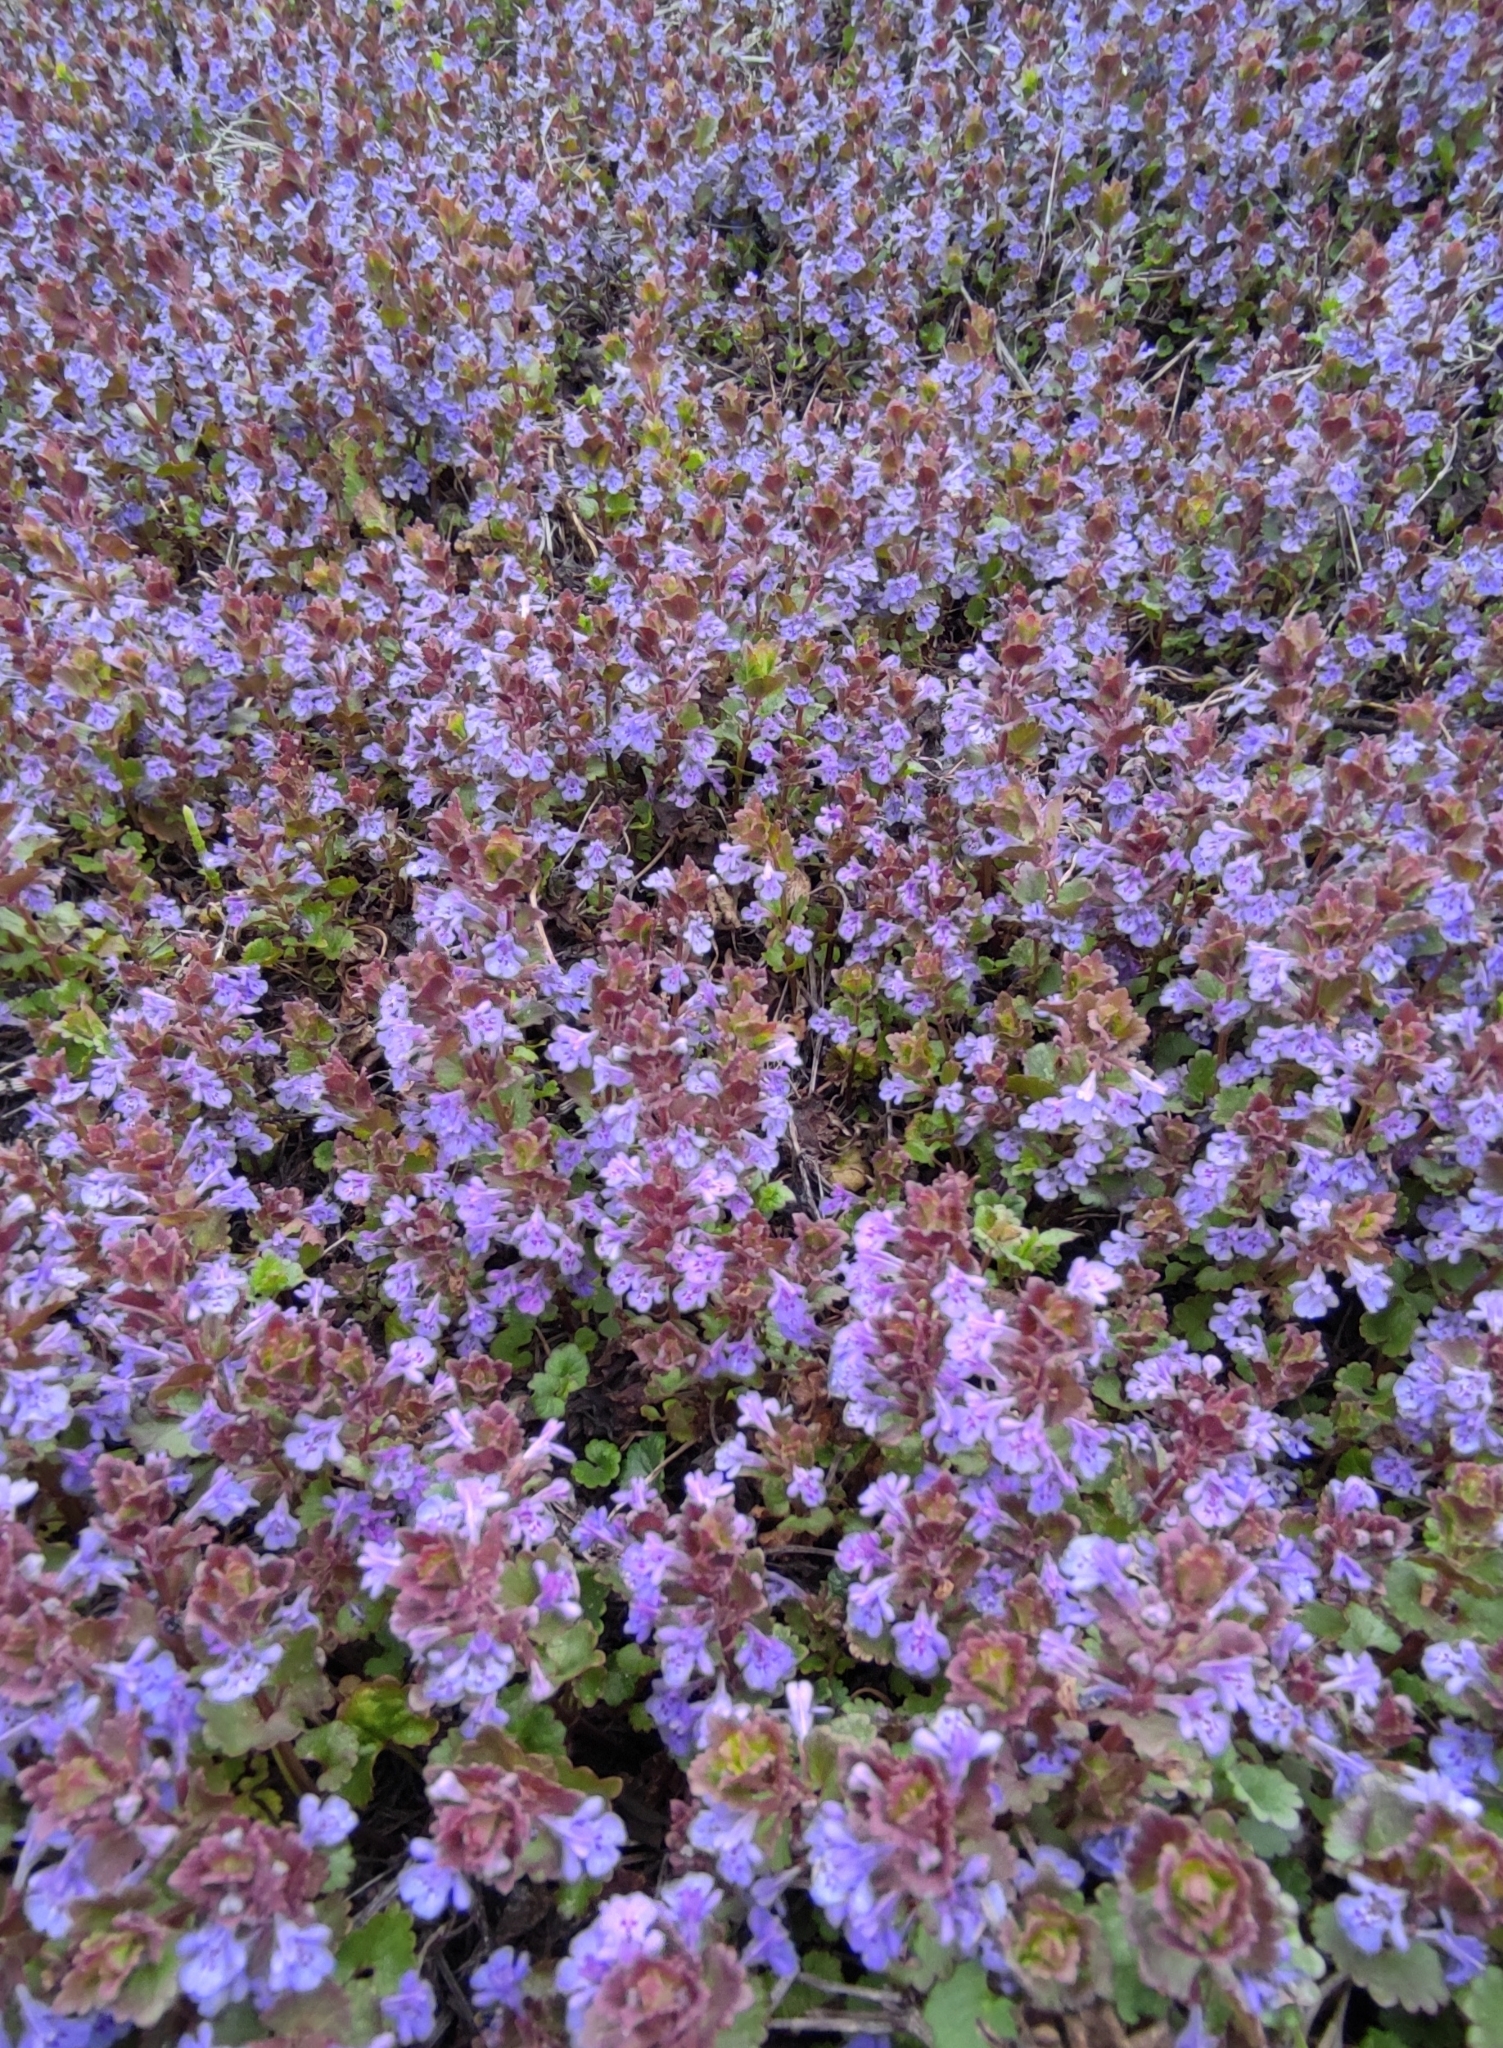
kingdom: Plantae
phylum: Tracheophyta
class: Magnoliopsida
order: Lamiales
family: Lamiaceae
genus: Glechoma
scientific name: Glechoma hederacea
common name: Ground ivy
